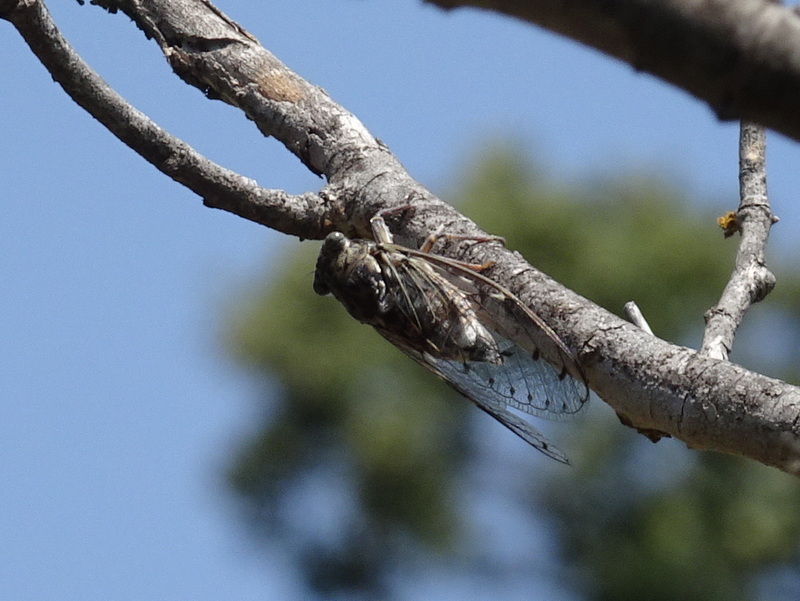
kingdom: Animalia
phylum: Arthropoda
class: Insecta
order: Hemiptera
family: Cicadidae
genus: Cicada
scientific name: Cicada orni
